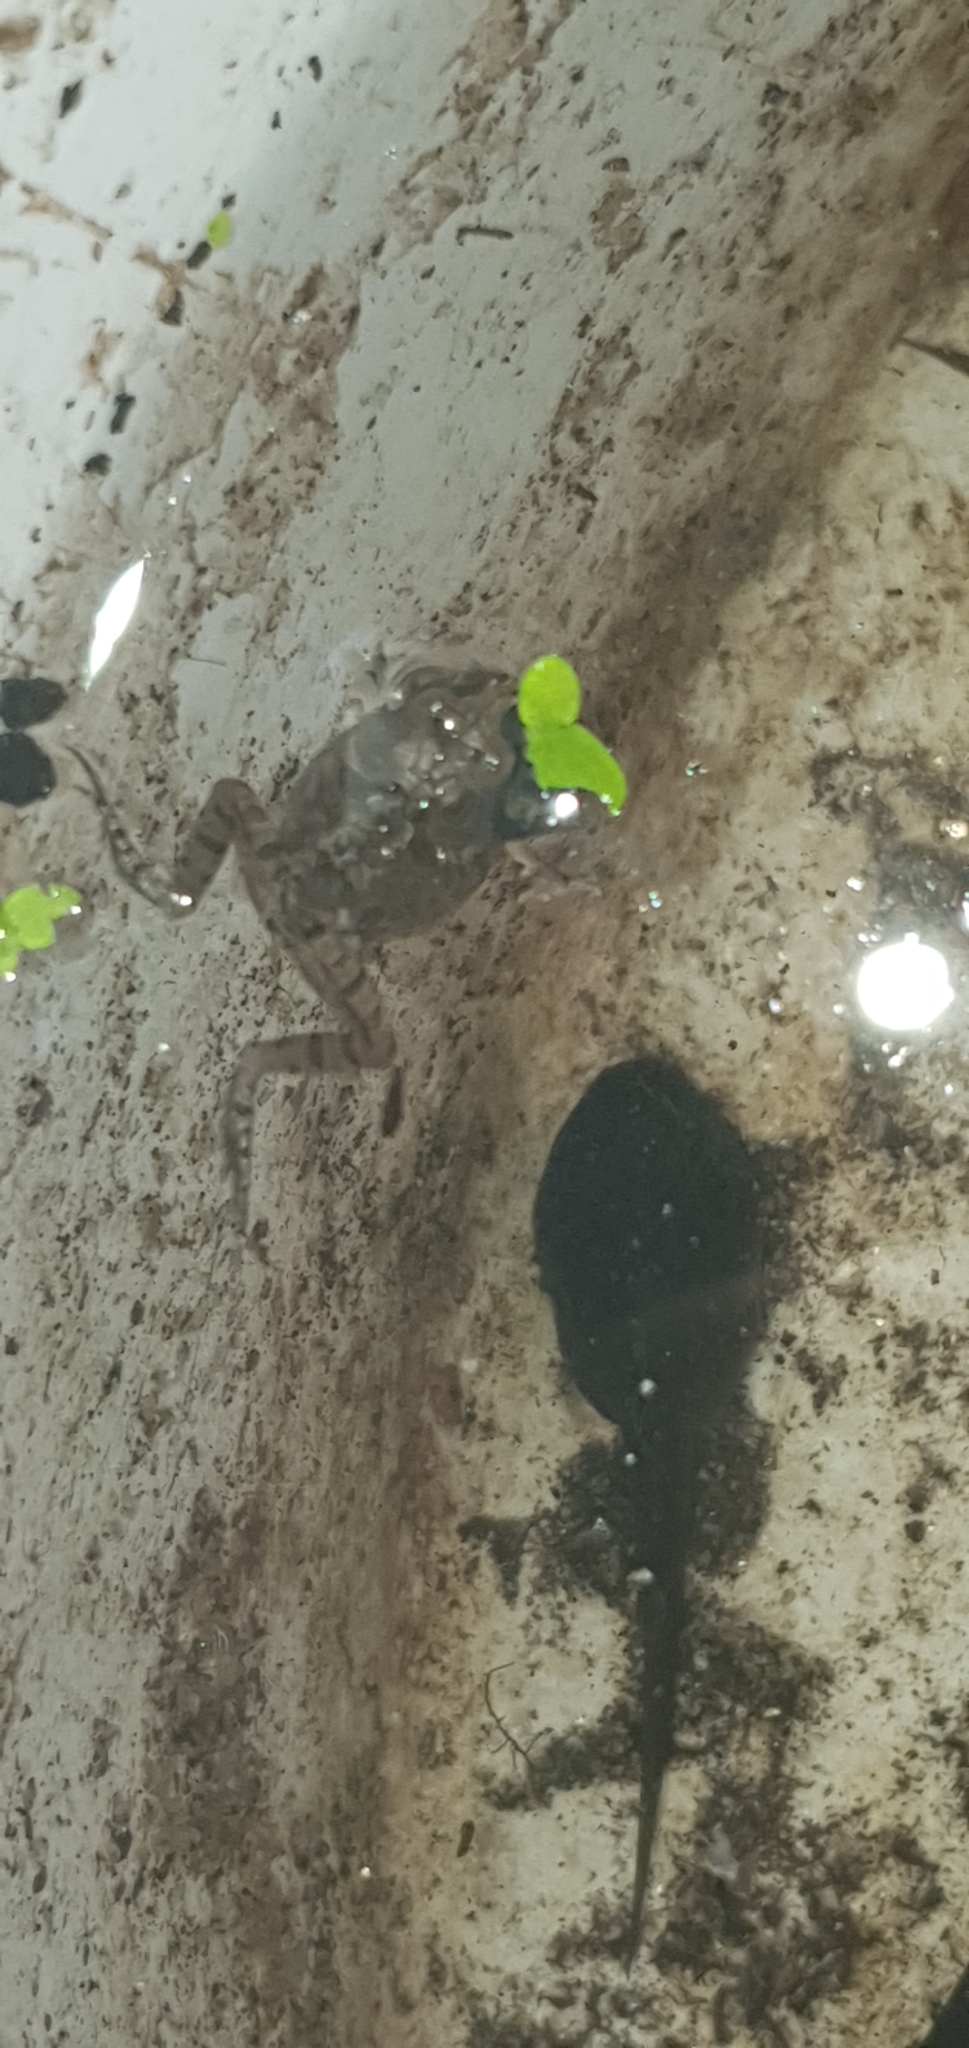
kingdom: Animalia
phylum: Chordata
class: Amphibia
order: Anura
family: Limnodynastidae
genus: Platyplectrum
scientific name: Platyplectrum ornatum
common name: Ornate burrowing frog
